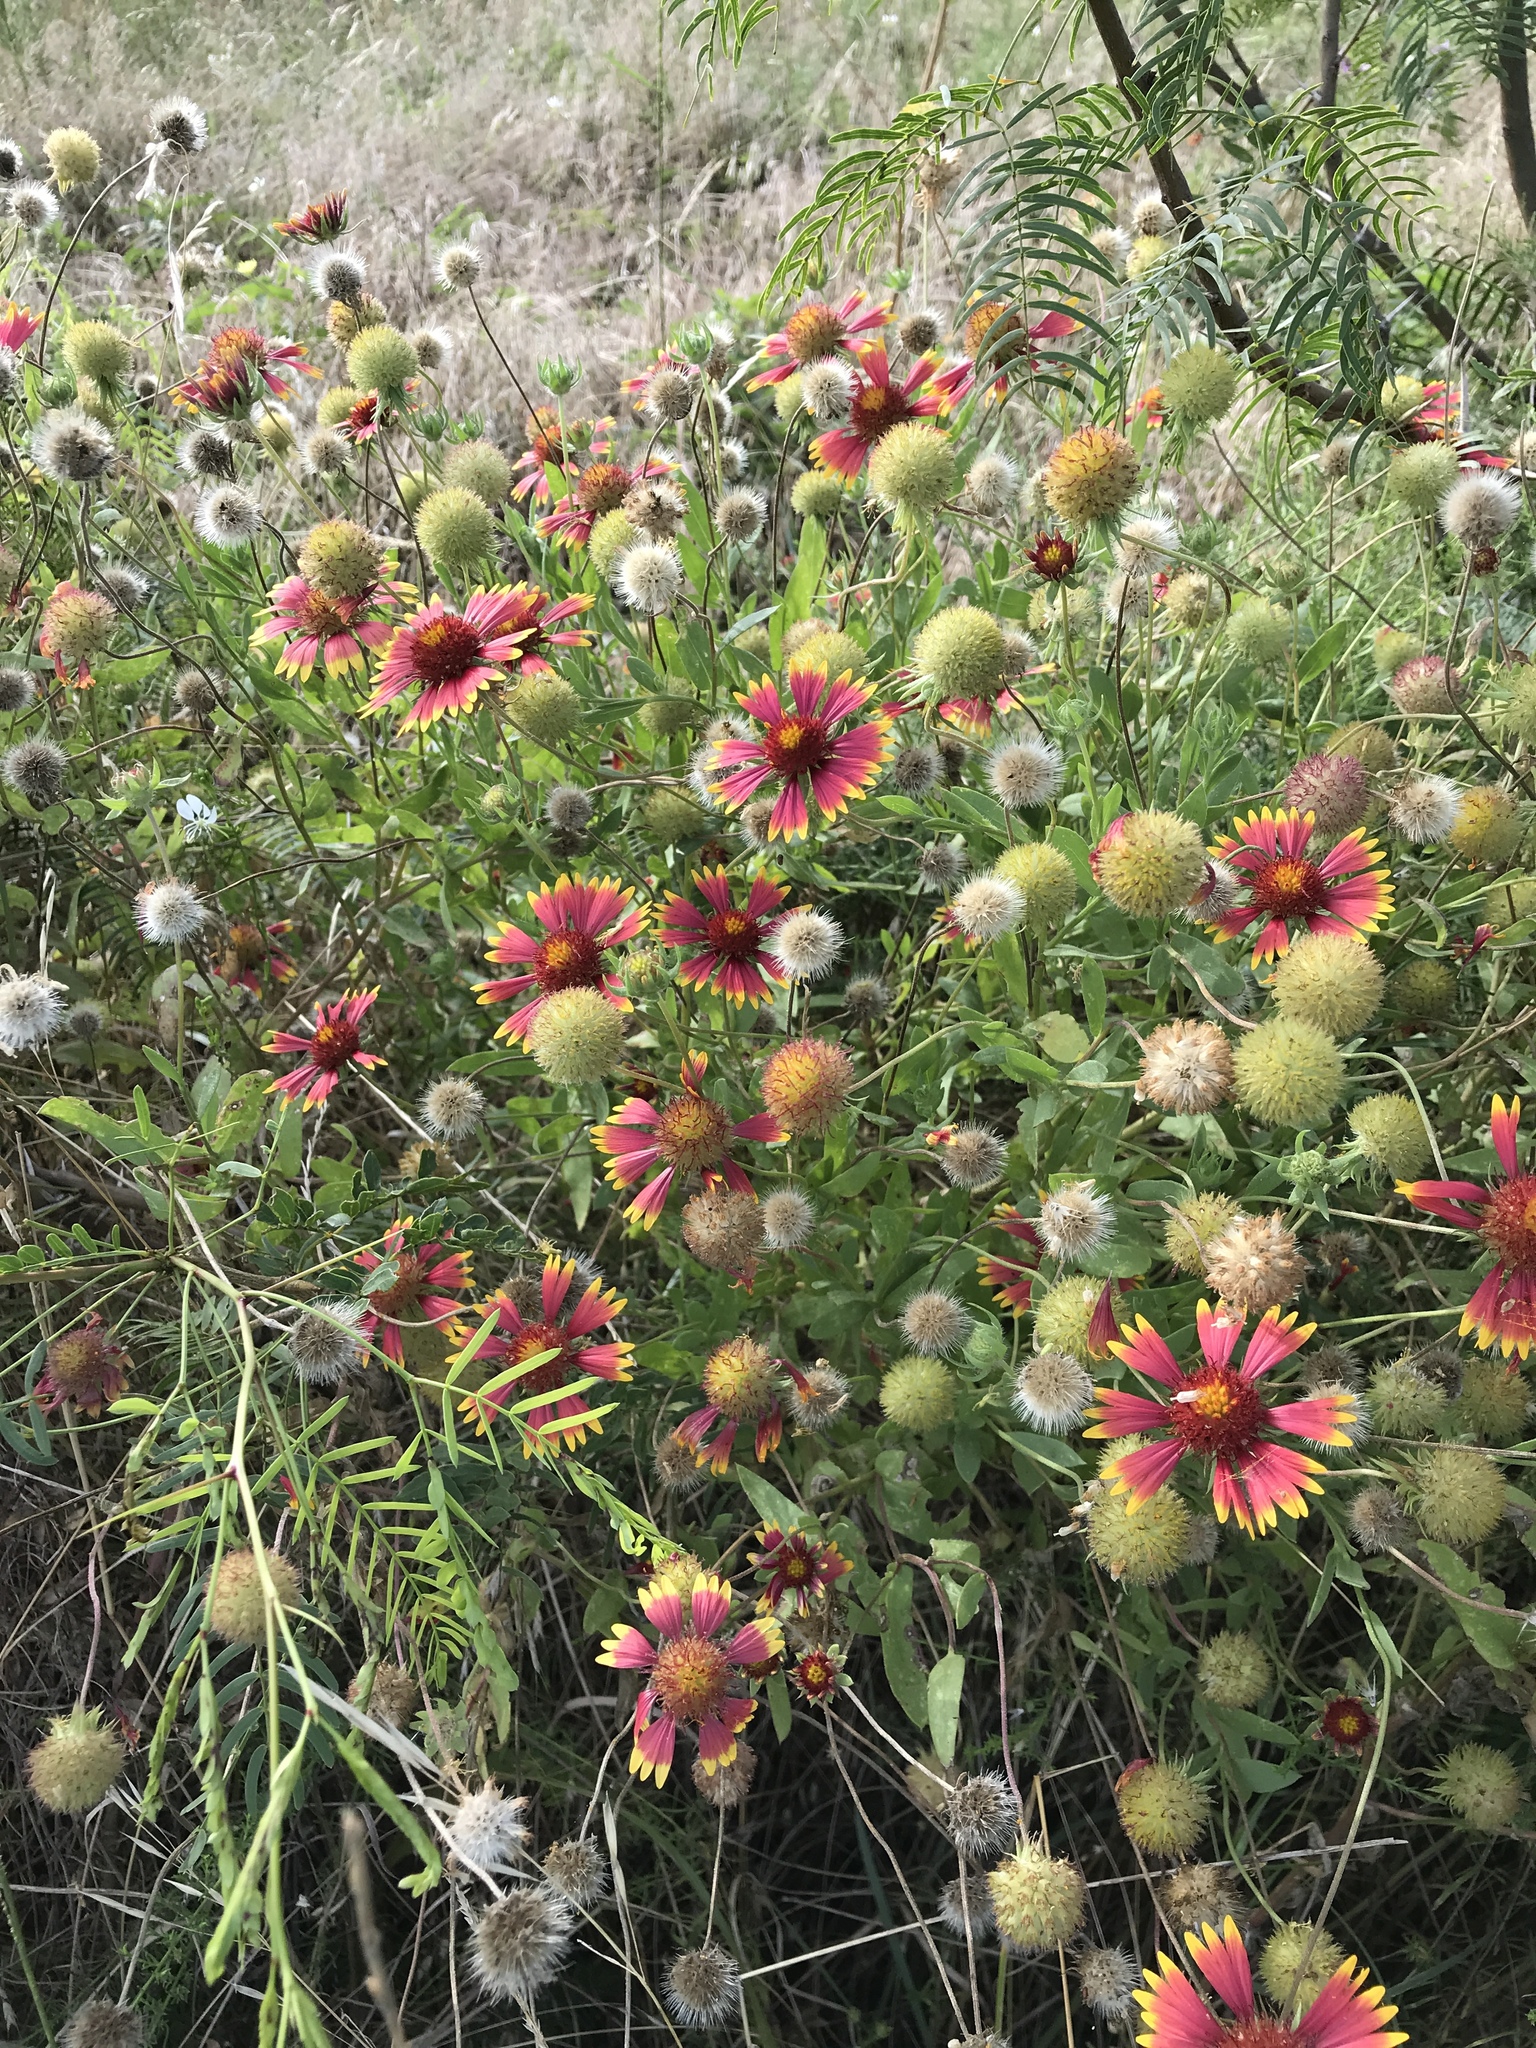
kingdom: Plantae
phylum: Tracheophyta
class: Magnoliopsida
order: Asterales
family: Asteraceae
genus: Gaillardia
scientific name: Gaillardia pulchella
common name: Firewheel
